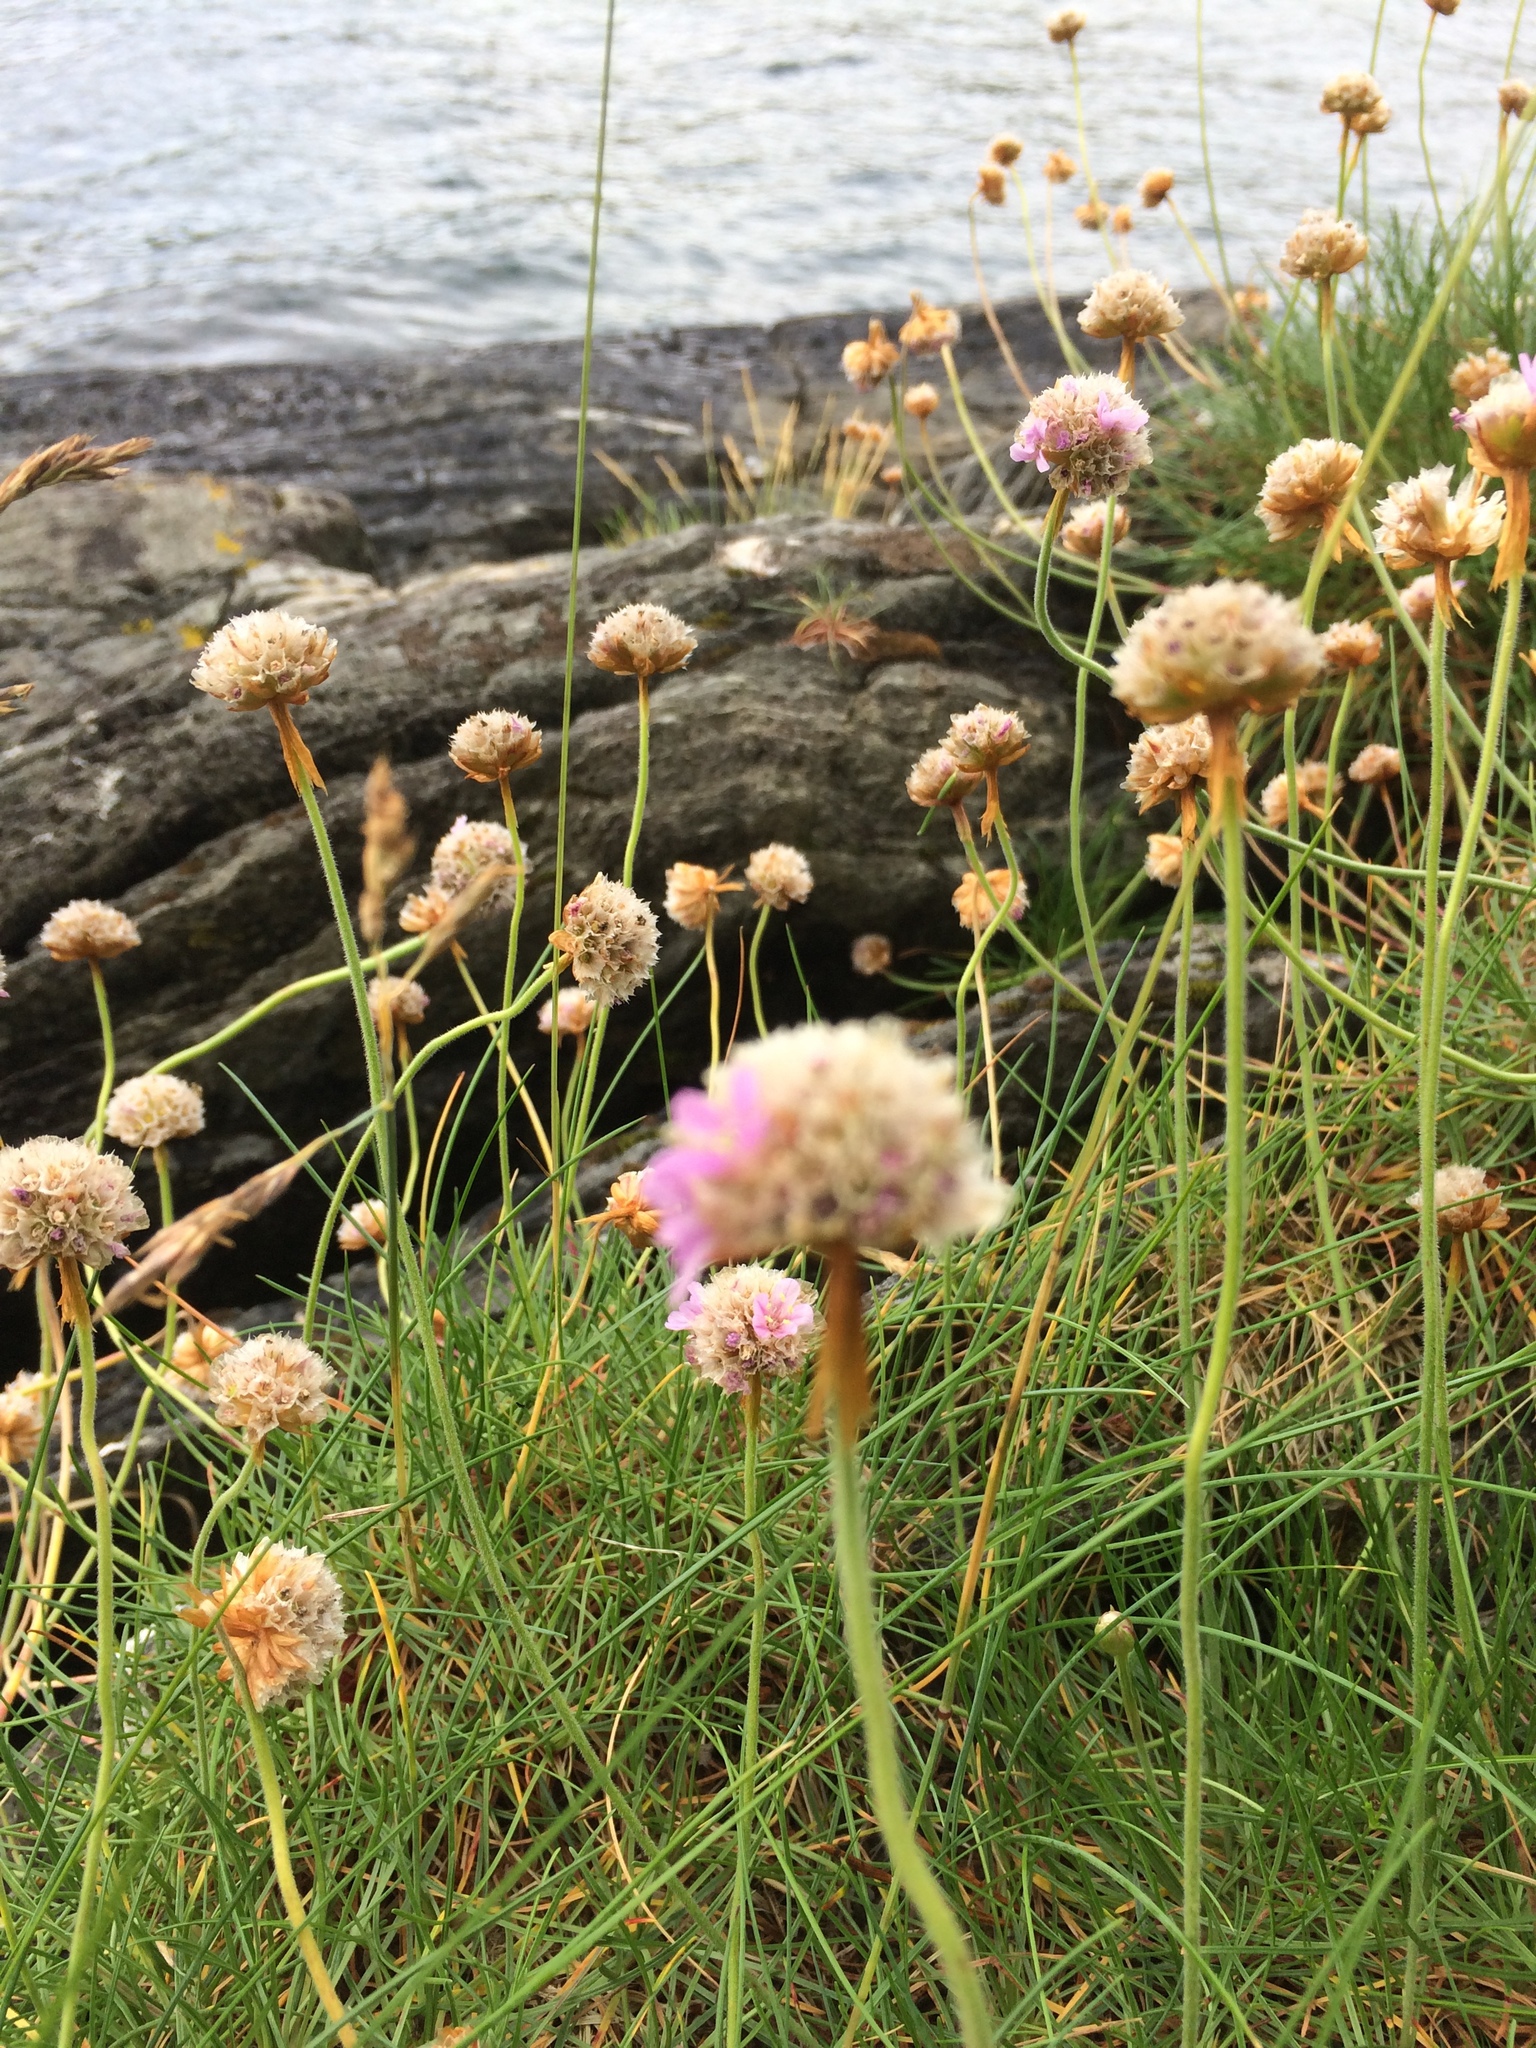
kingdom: Plantae
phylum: Tracheophyta
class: Magnoliopsida
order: Caryophyllales
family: Plumbaginaceae
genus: Armeria
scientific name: Armeria maritima
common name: Thrift
